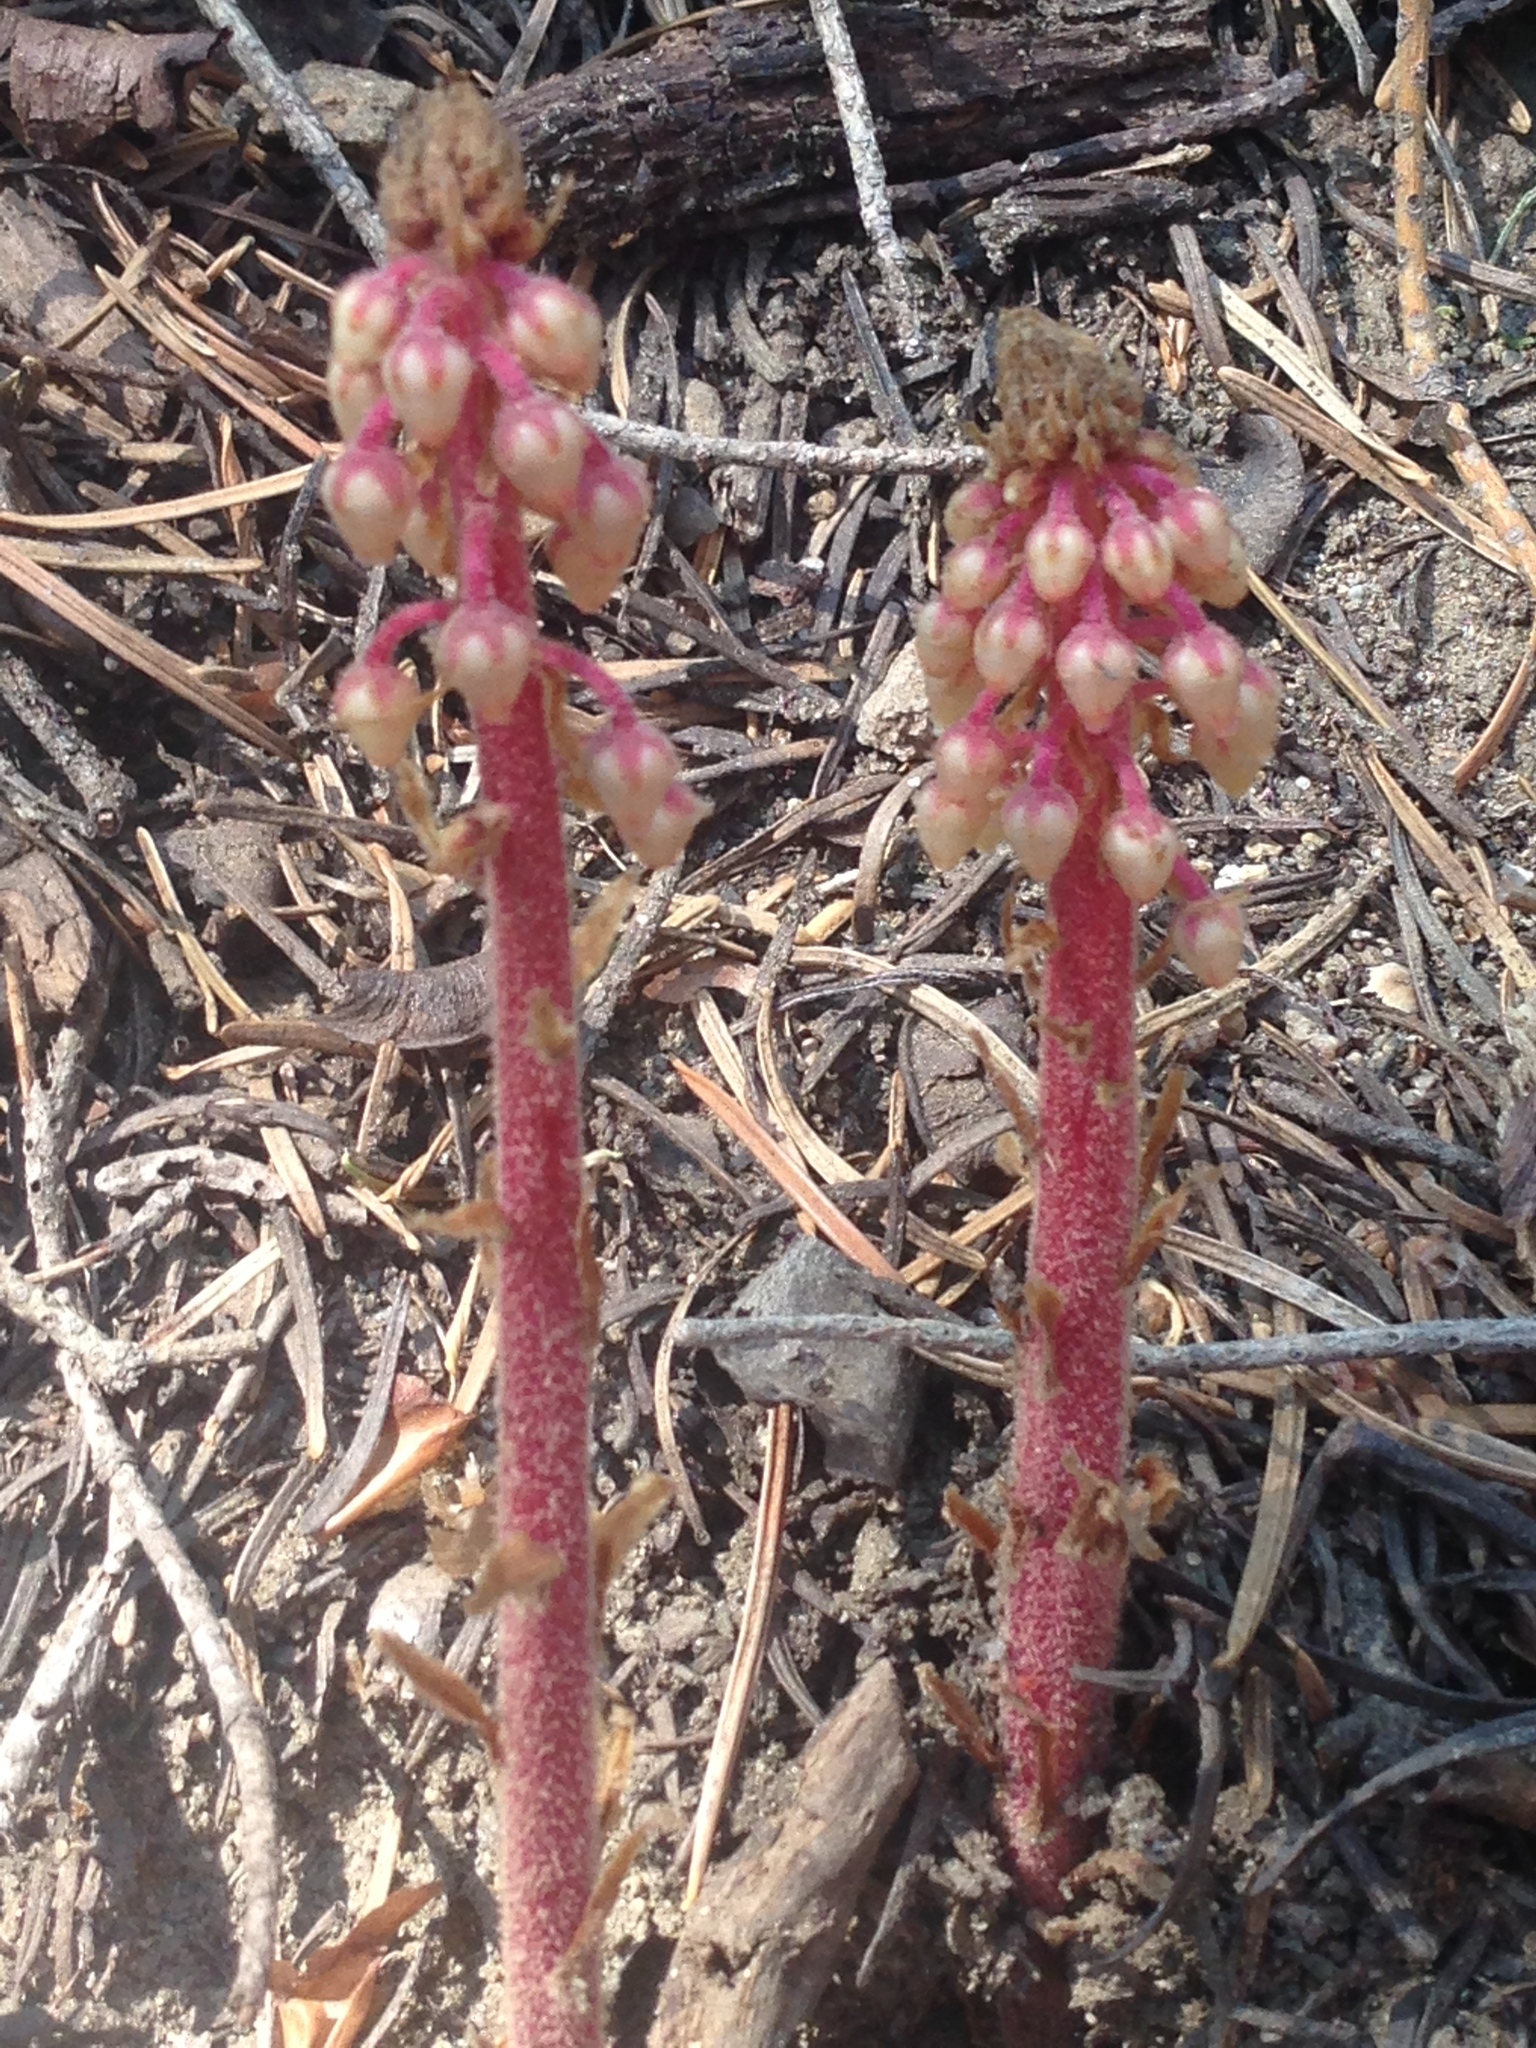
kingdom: Plantae
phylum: Tracheophyta
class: Magnoliopsida
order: Ericales
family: Ericaceae
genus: Pterospora
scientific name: Pterospora andromedea
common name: Giant bird's-nest
